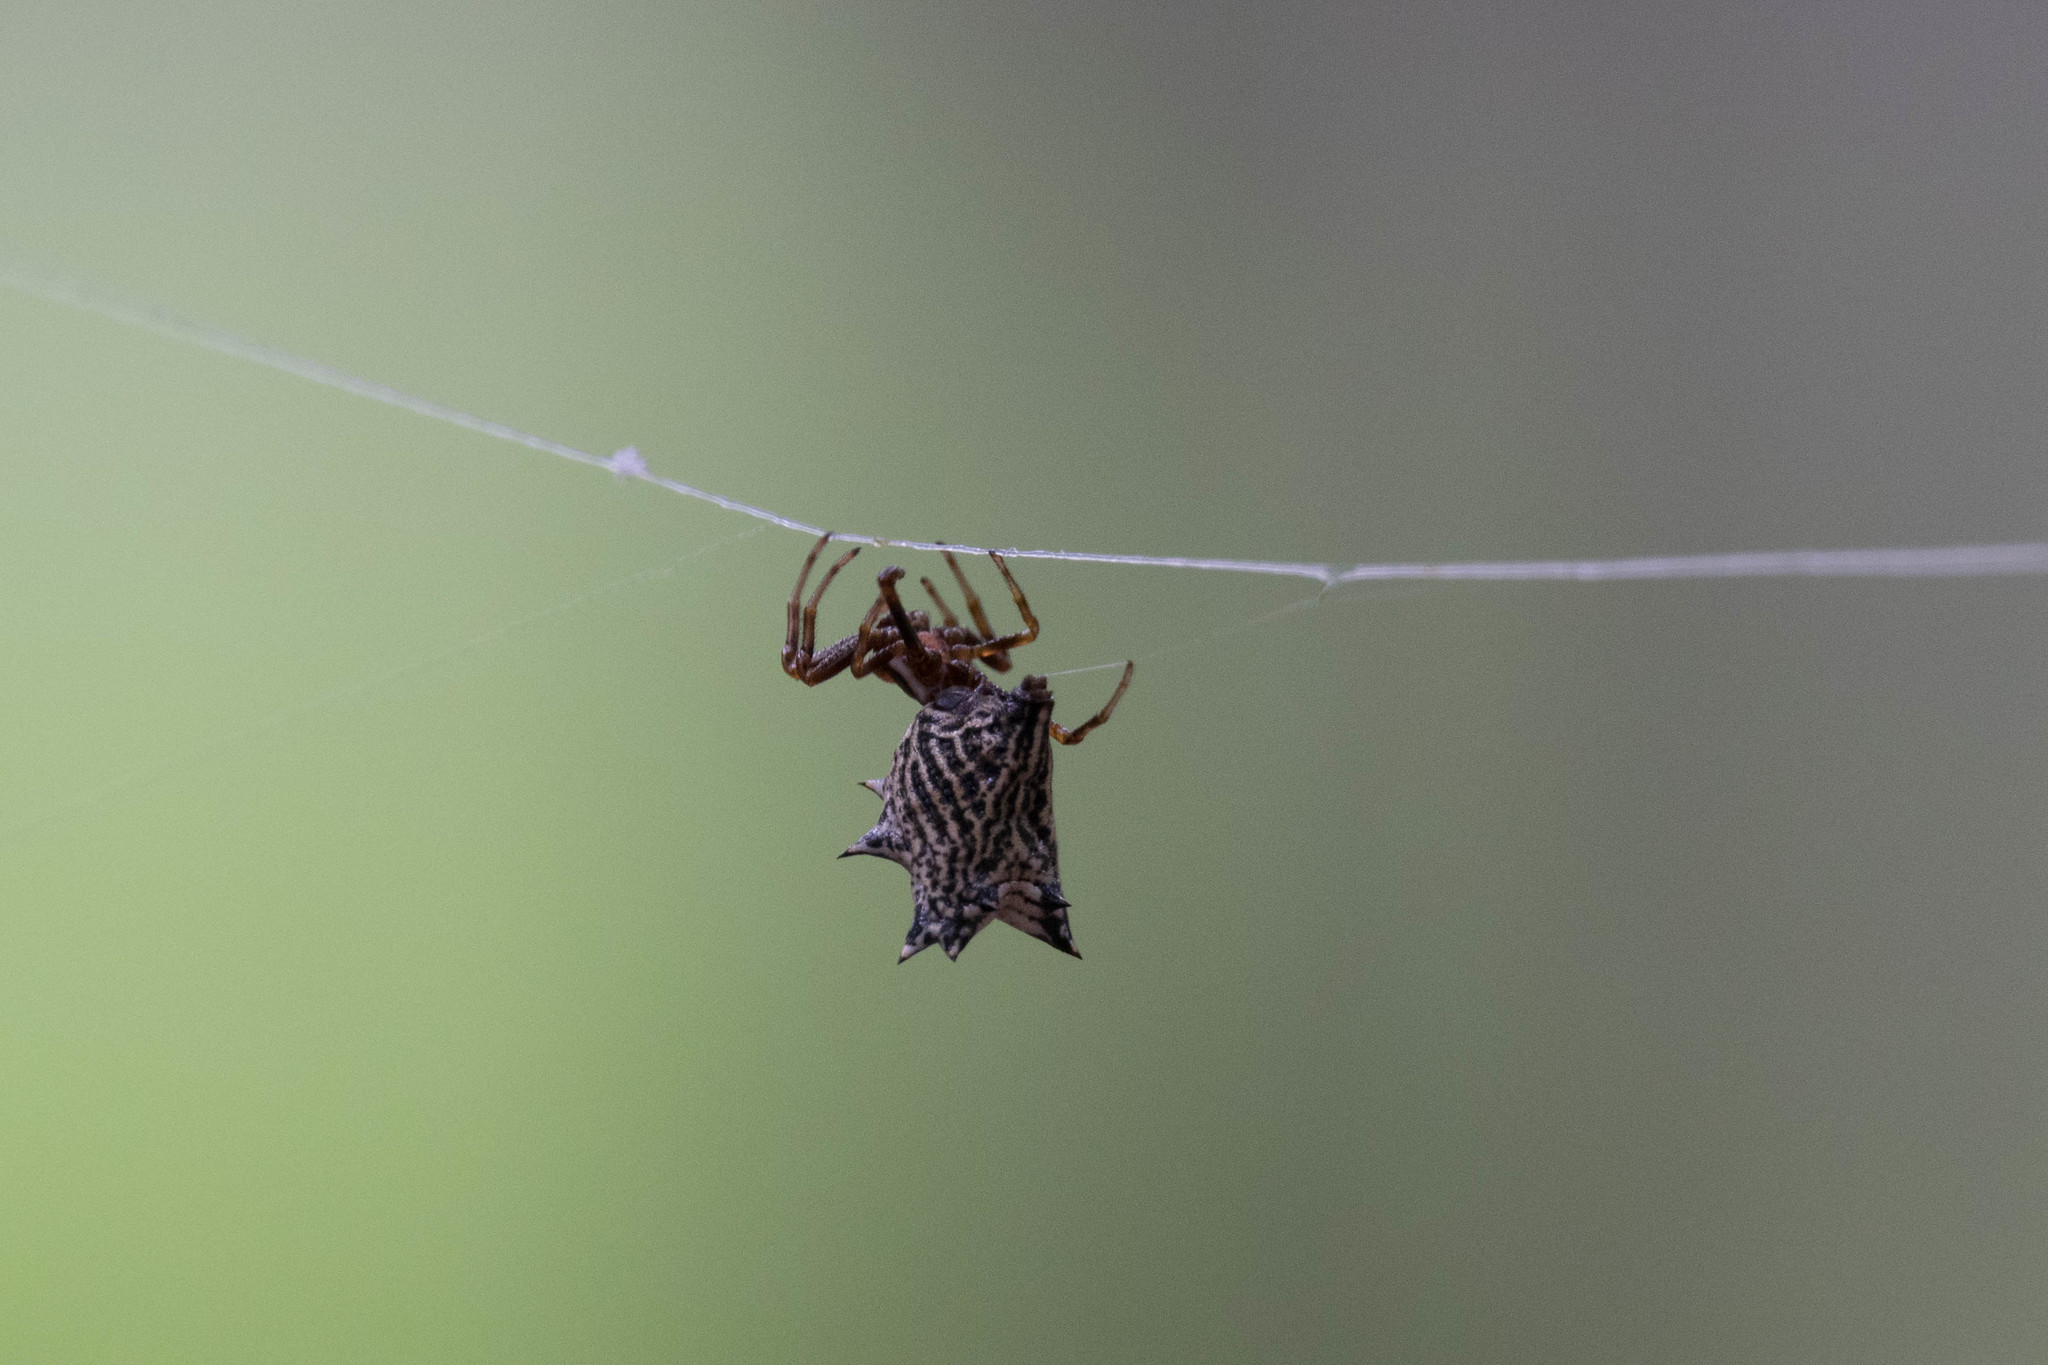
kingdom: Animalia
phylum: Arthropoda
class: Arachnida
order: Araneae
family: Araneidae
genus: Micrathena
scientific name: Micrathena gracilis
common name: Orb weavers
